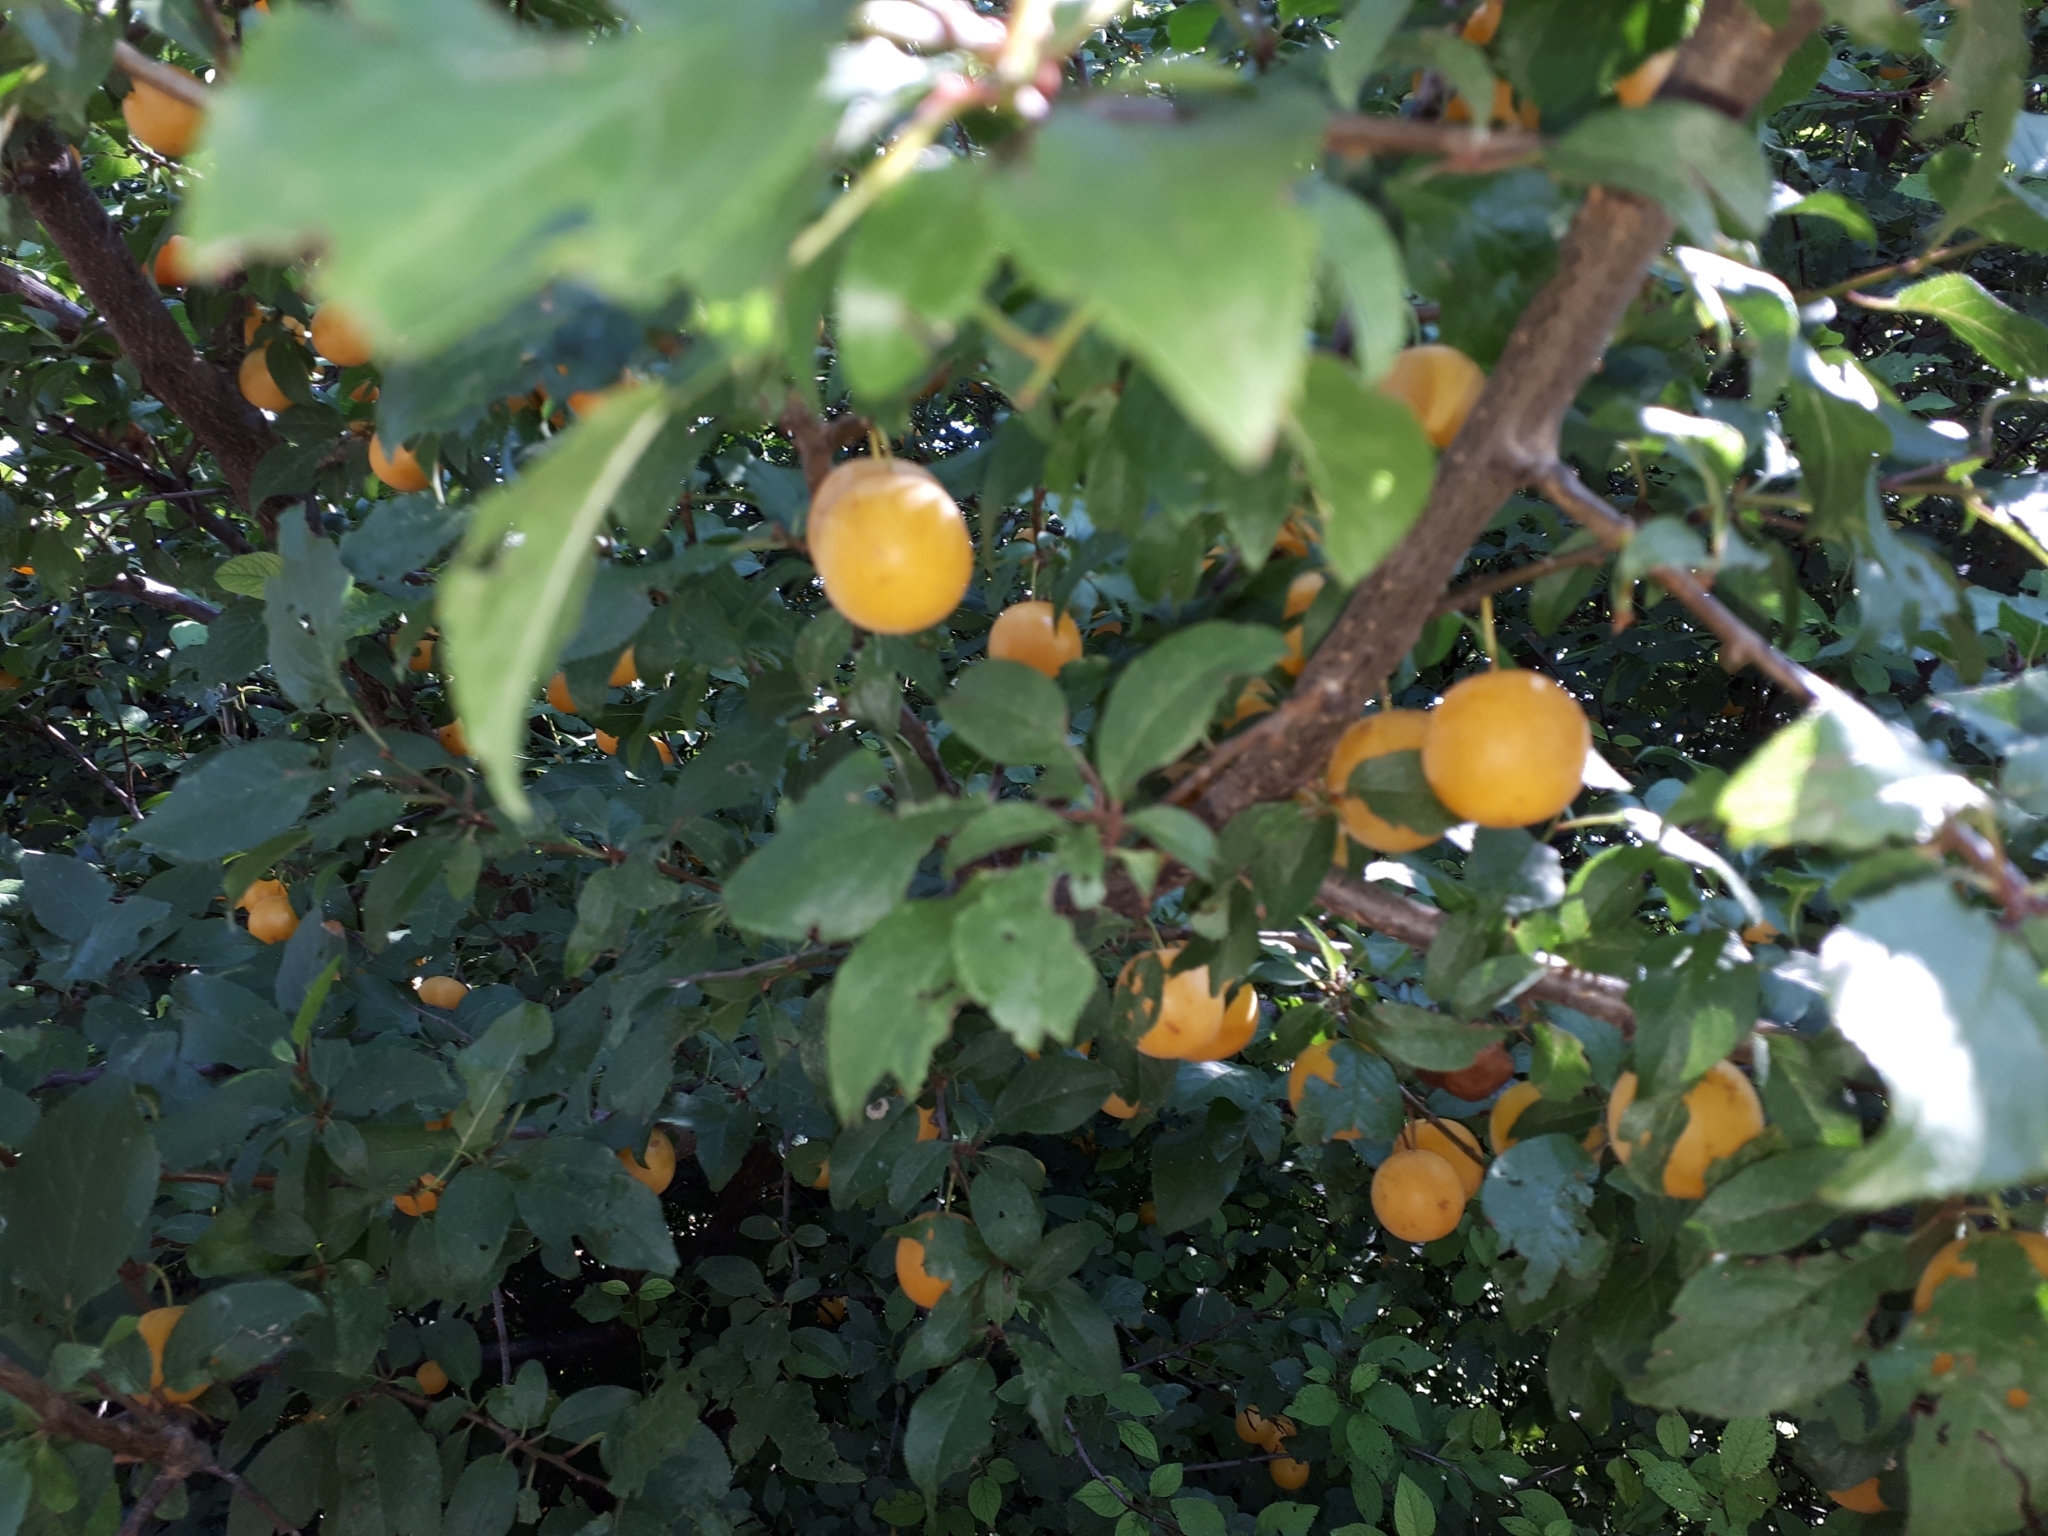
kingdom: Plantae
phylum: Tracheophyta
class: Magnoliopsida
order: Rosales
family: Rosaceae
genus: Prunus
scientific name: Prunus cerasifera
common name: Cherry plum
